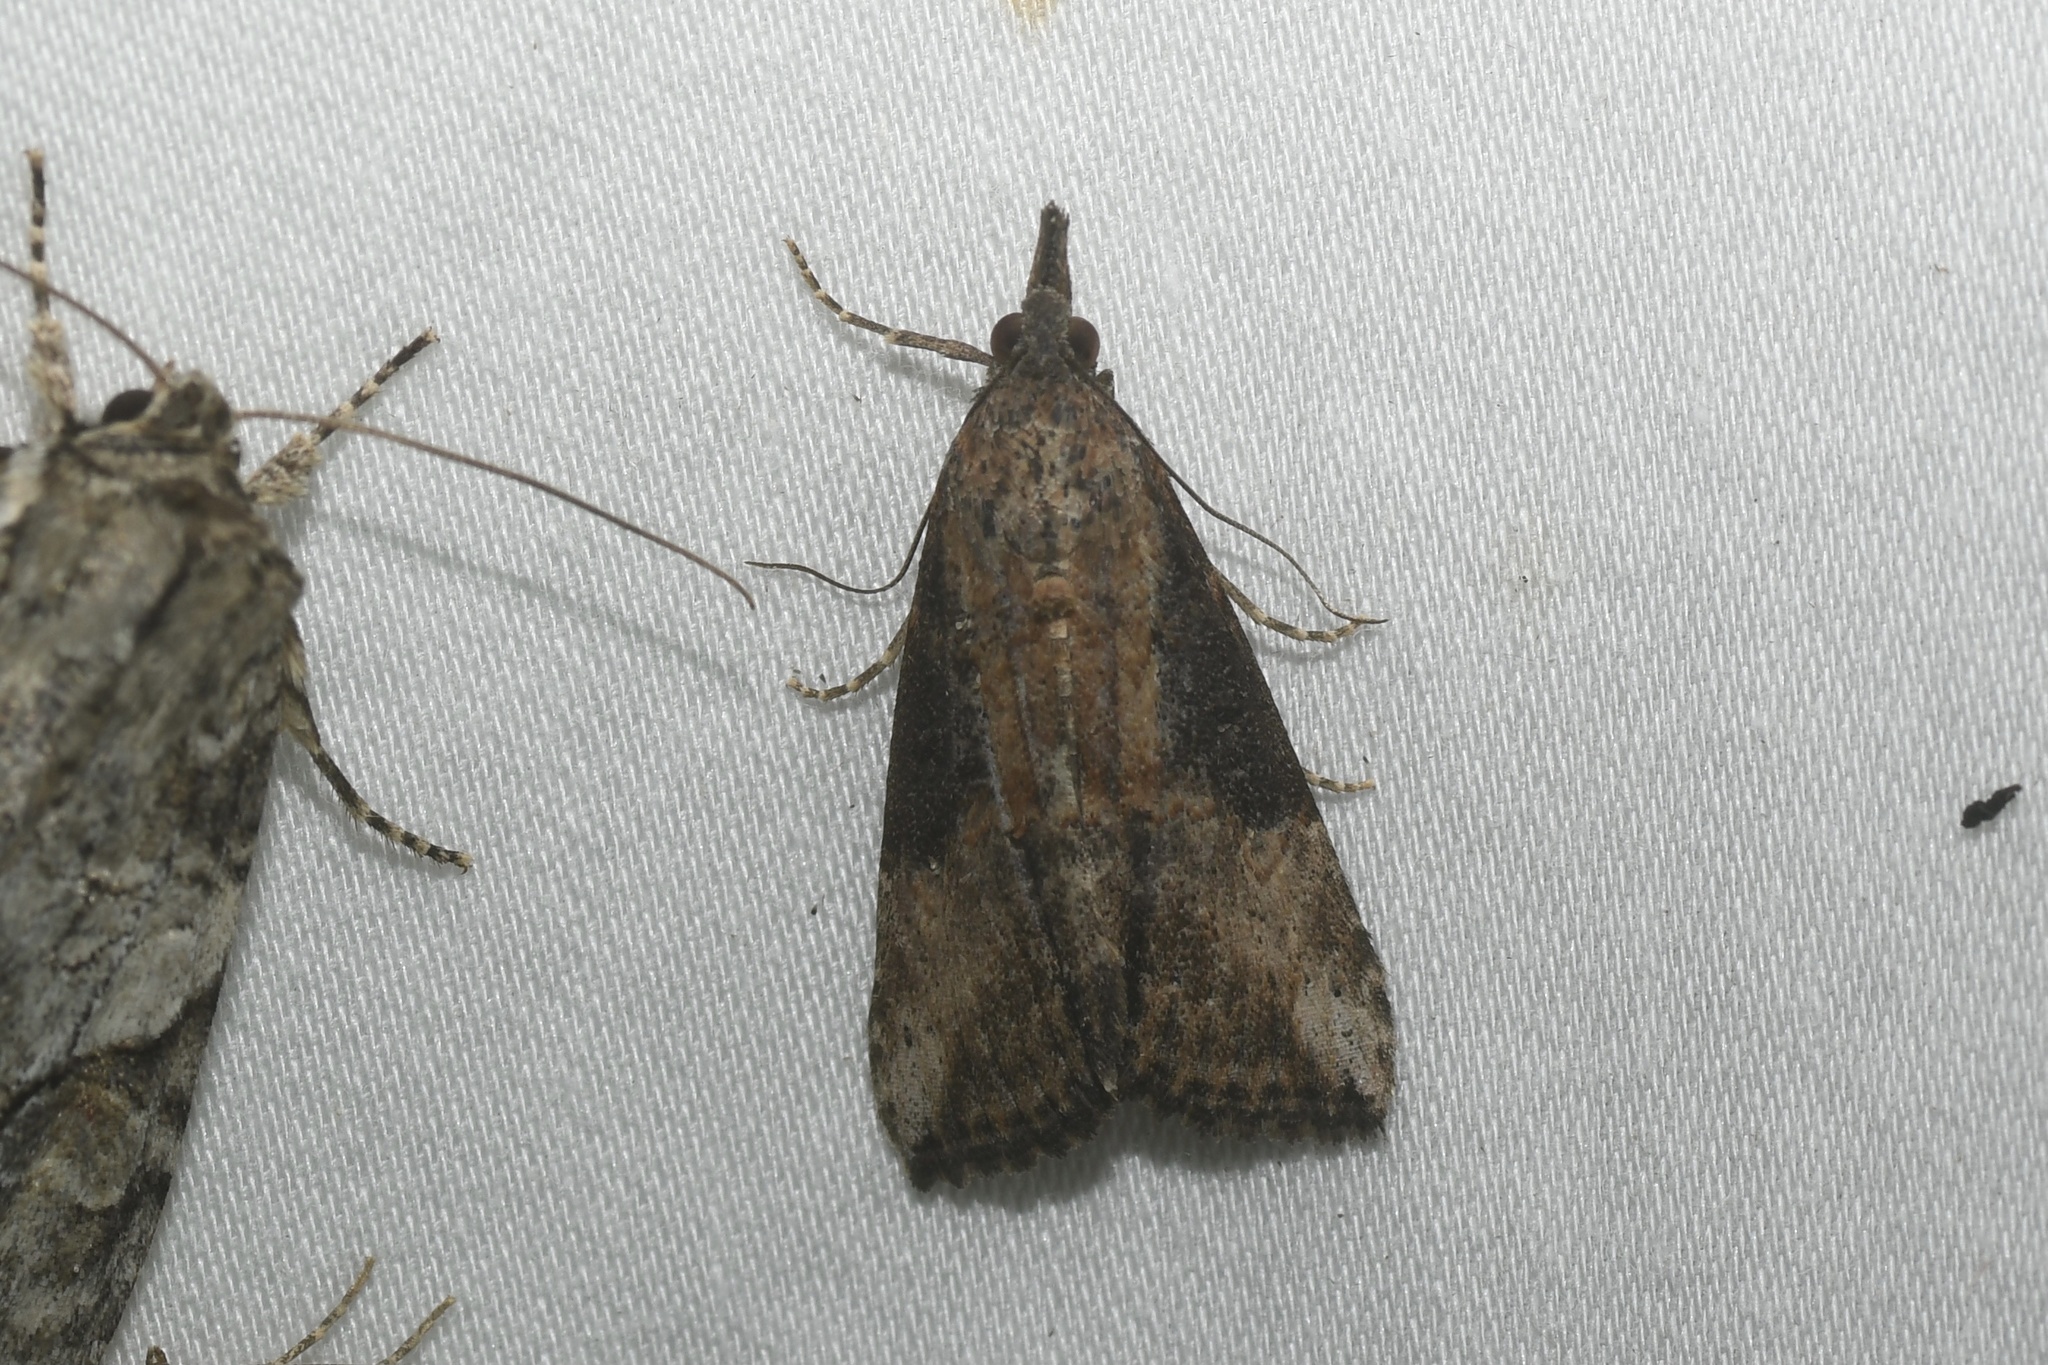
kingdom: Animalia
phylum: Arthropoda
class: Insecta
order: Lepidoptera
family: Erebidae
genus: Hypena
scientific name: Hypena scabra
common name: Green cloverworm
